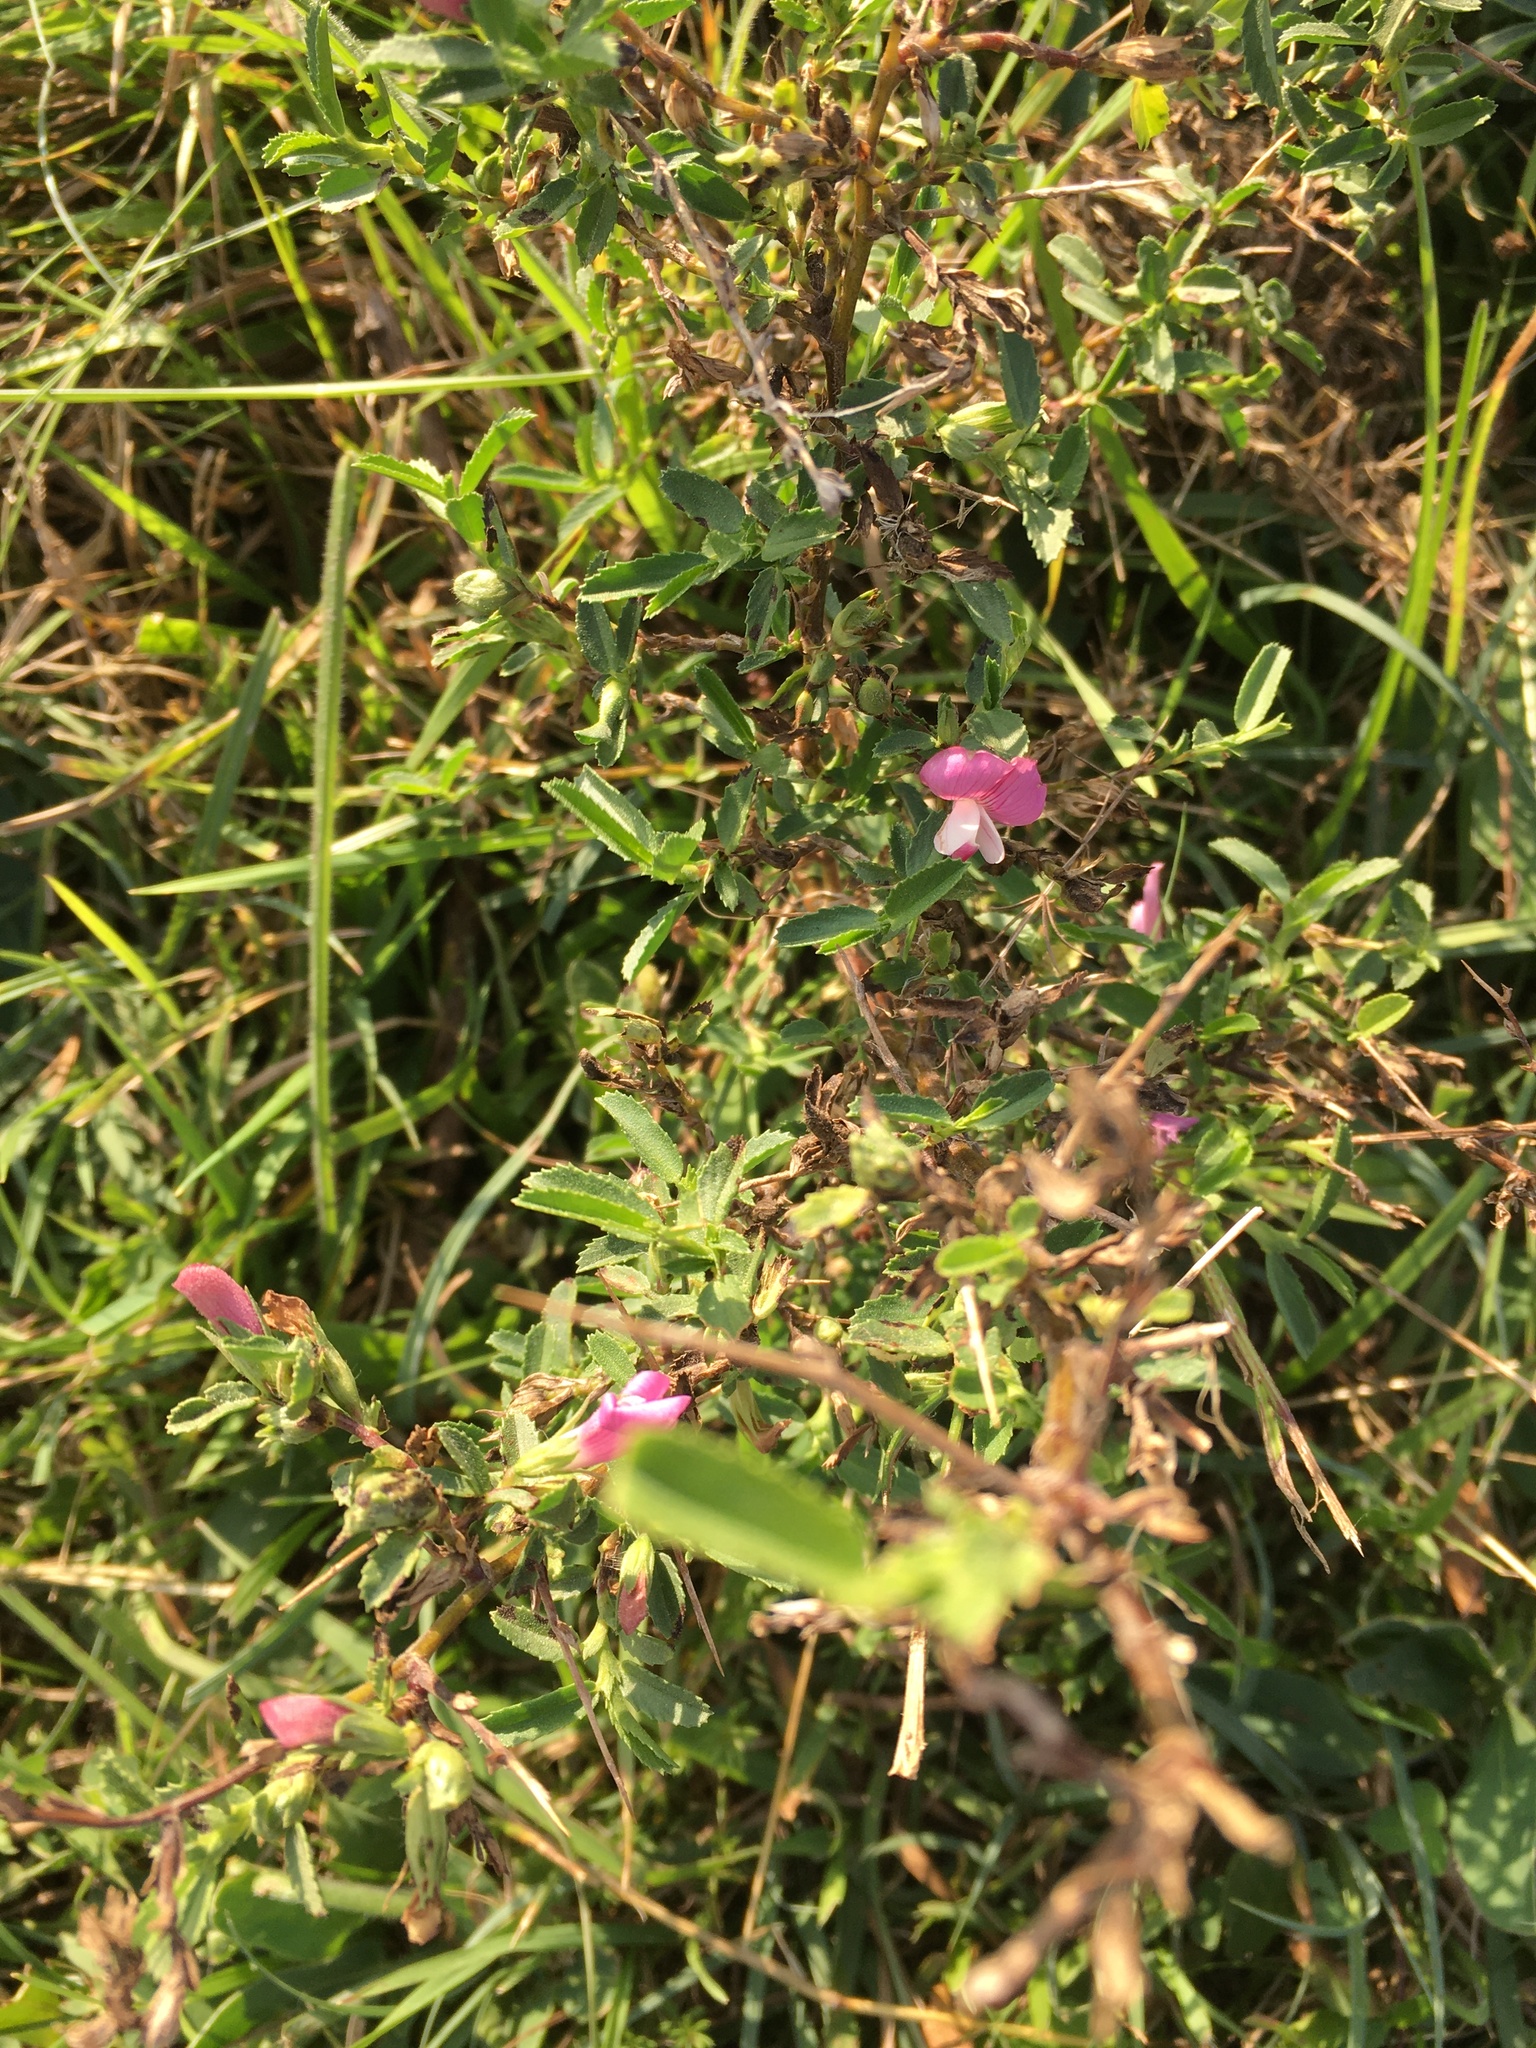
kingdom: Plantae
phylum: Tracheophyta
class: Magnoliopsida
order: Fabales
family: Fabaceae
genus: Ononis
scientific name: Ononis spinosa
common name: Spiny restharrow
